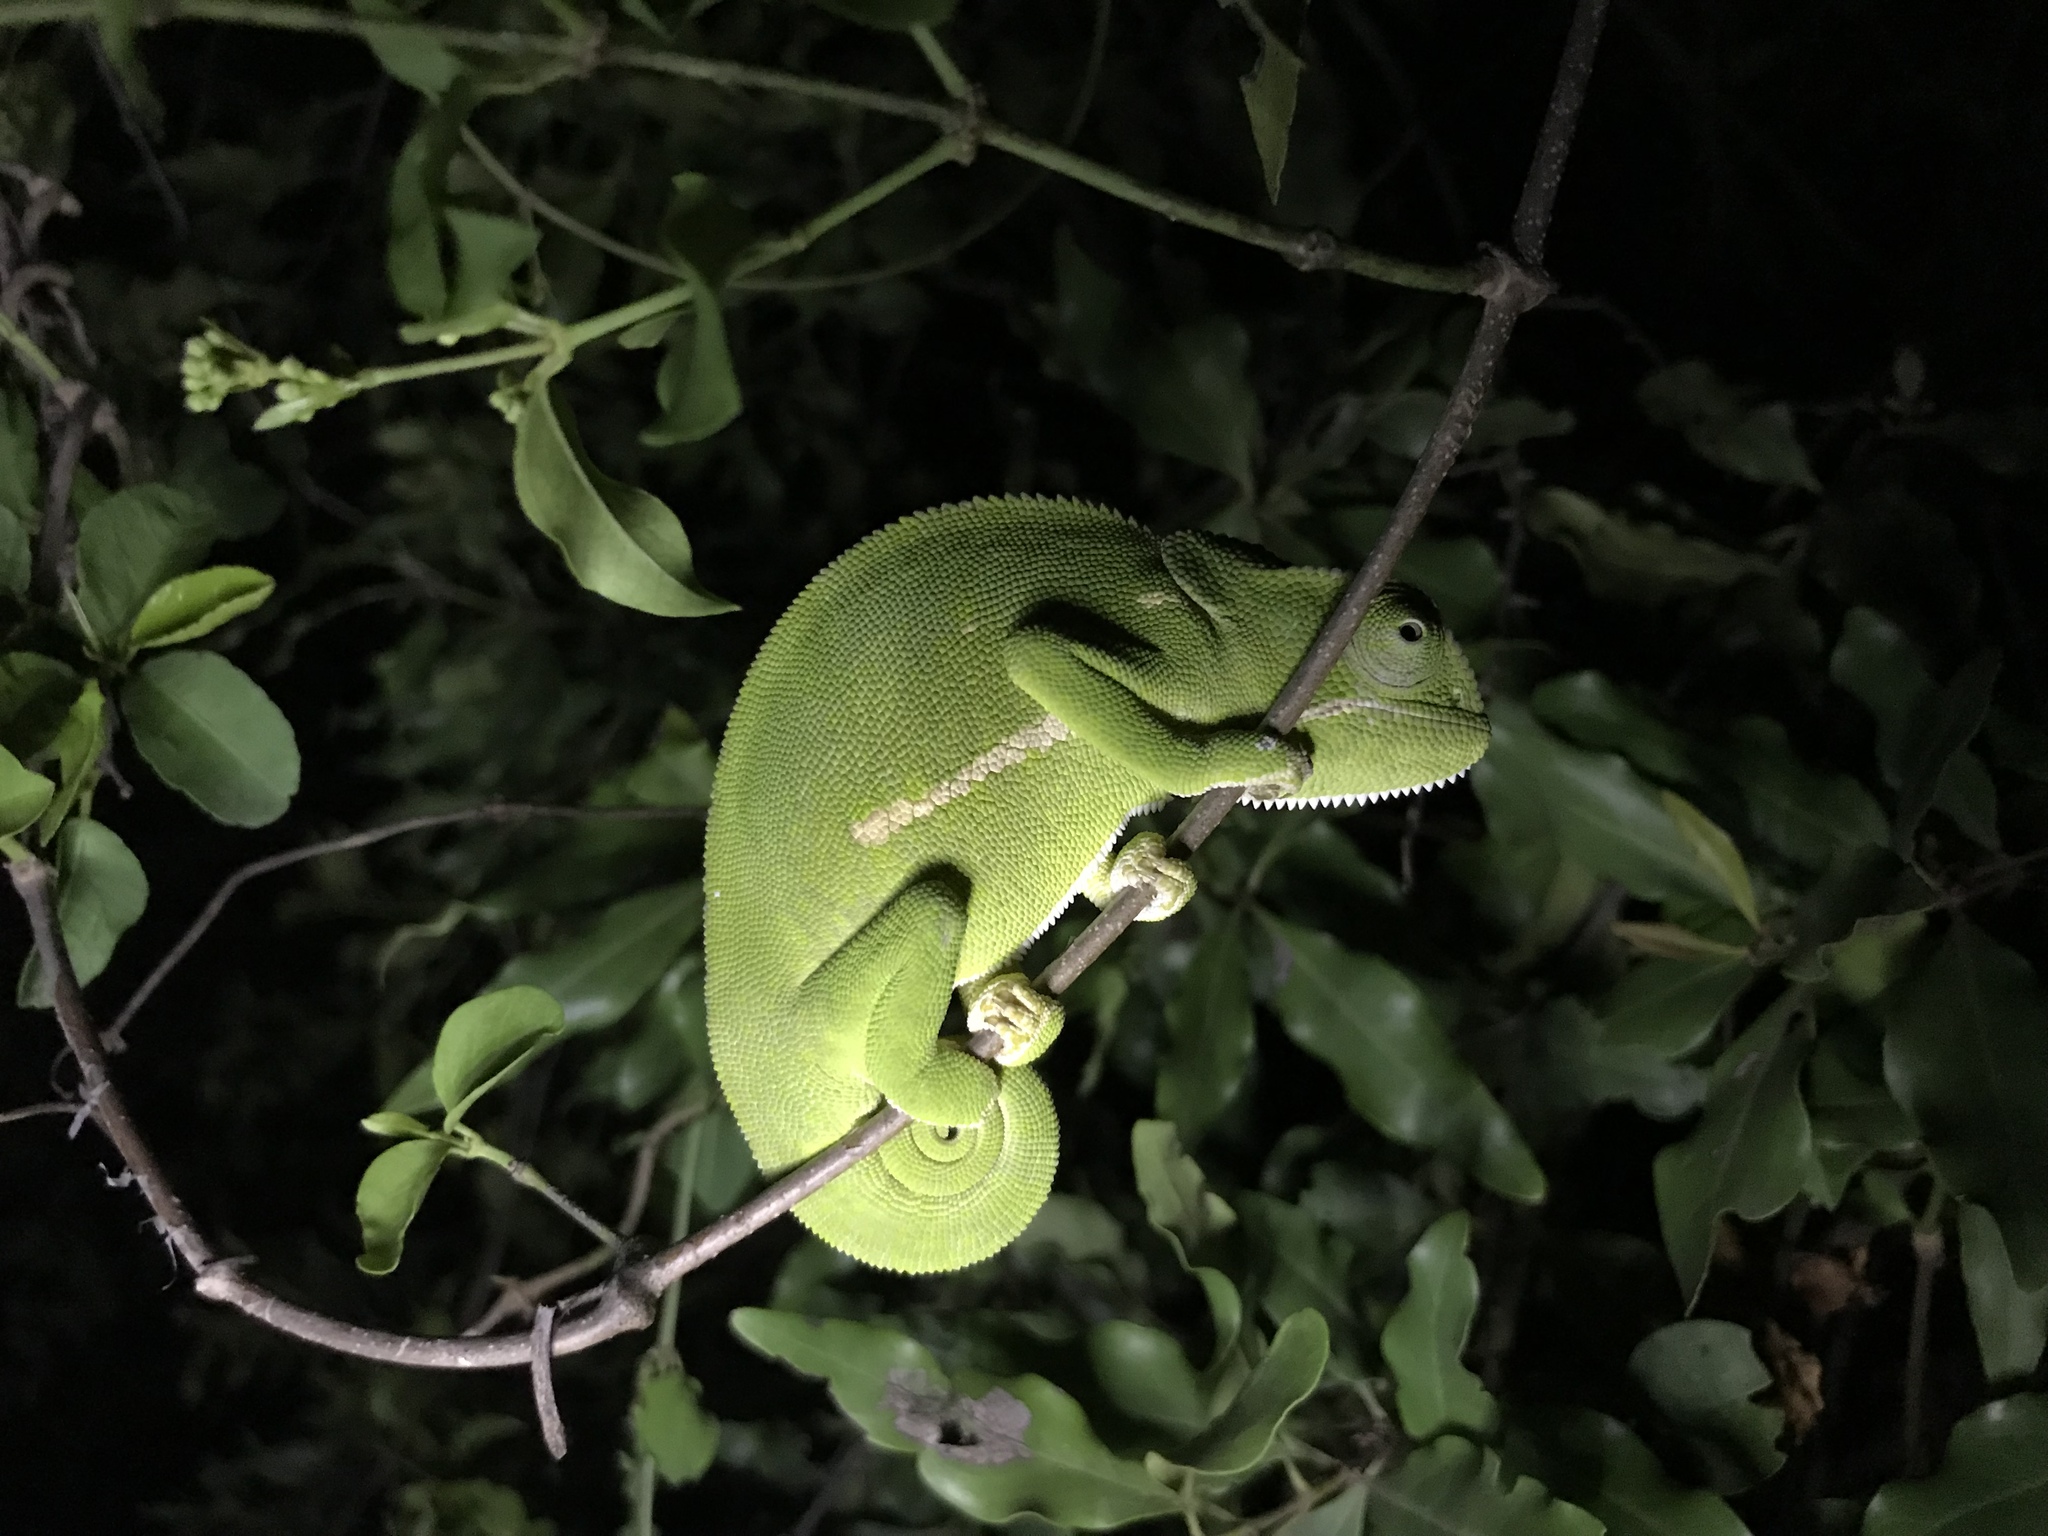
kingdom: Animalia
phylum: Chordata
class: Squamata
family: Chamaeleonidae
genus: Chamaeleo
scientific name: Chamaeleo dilepis
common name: Flapneck chameleon
